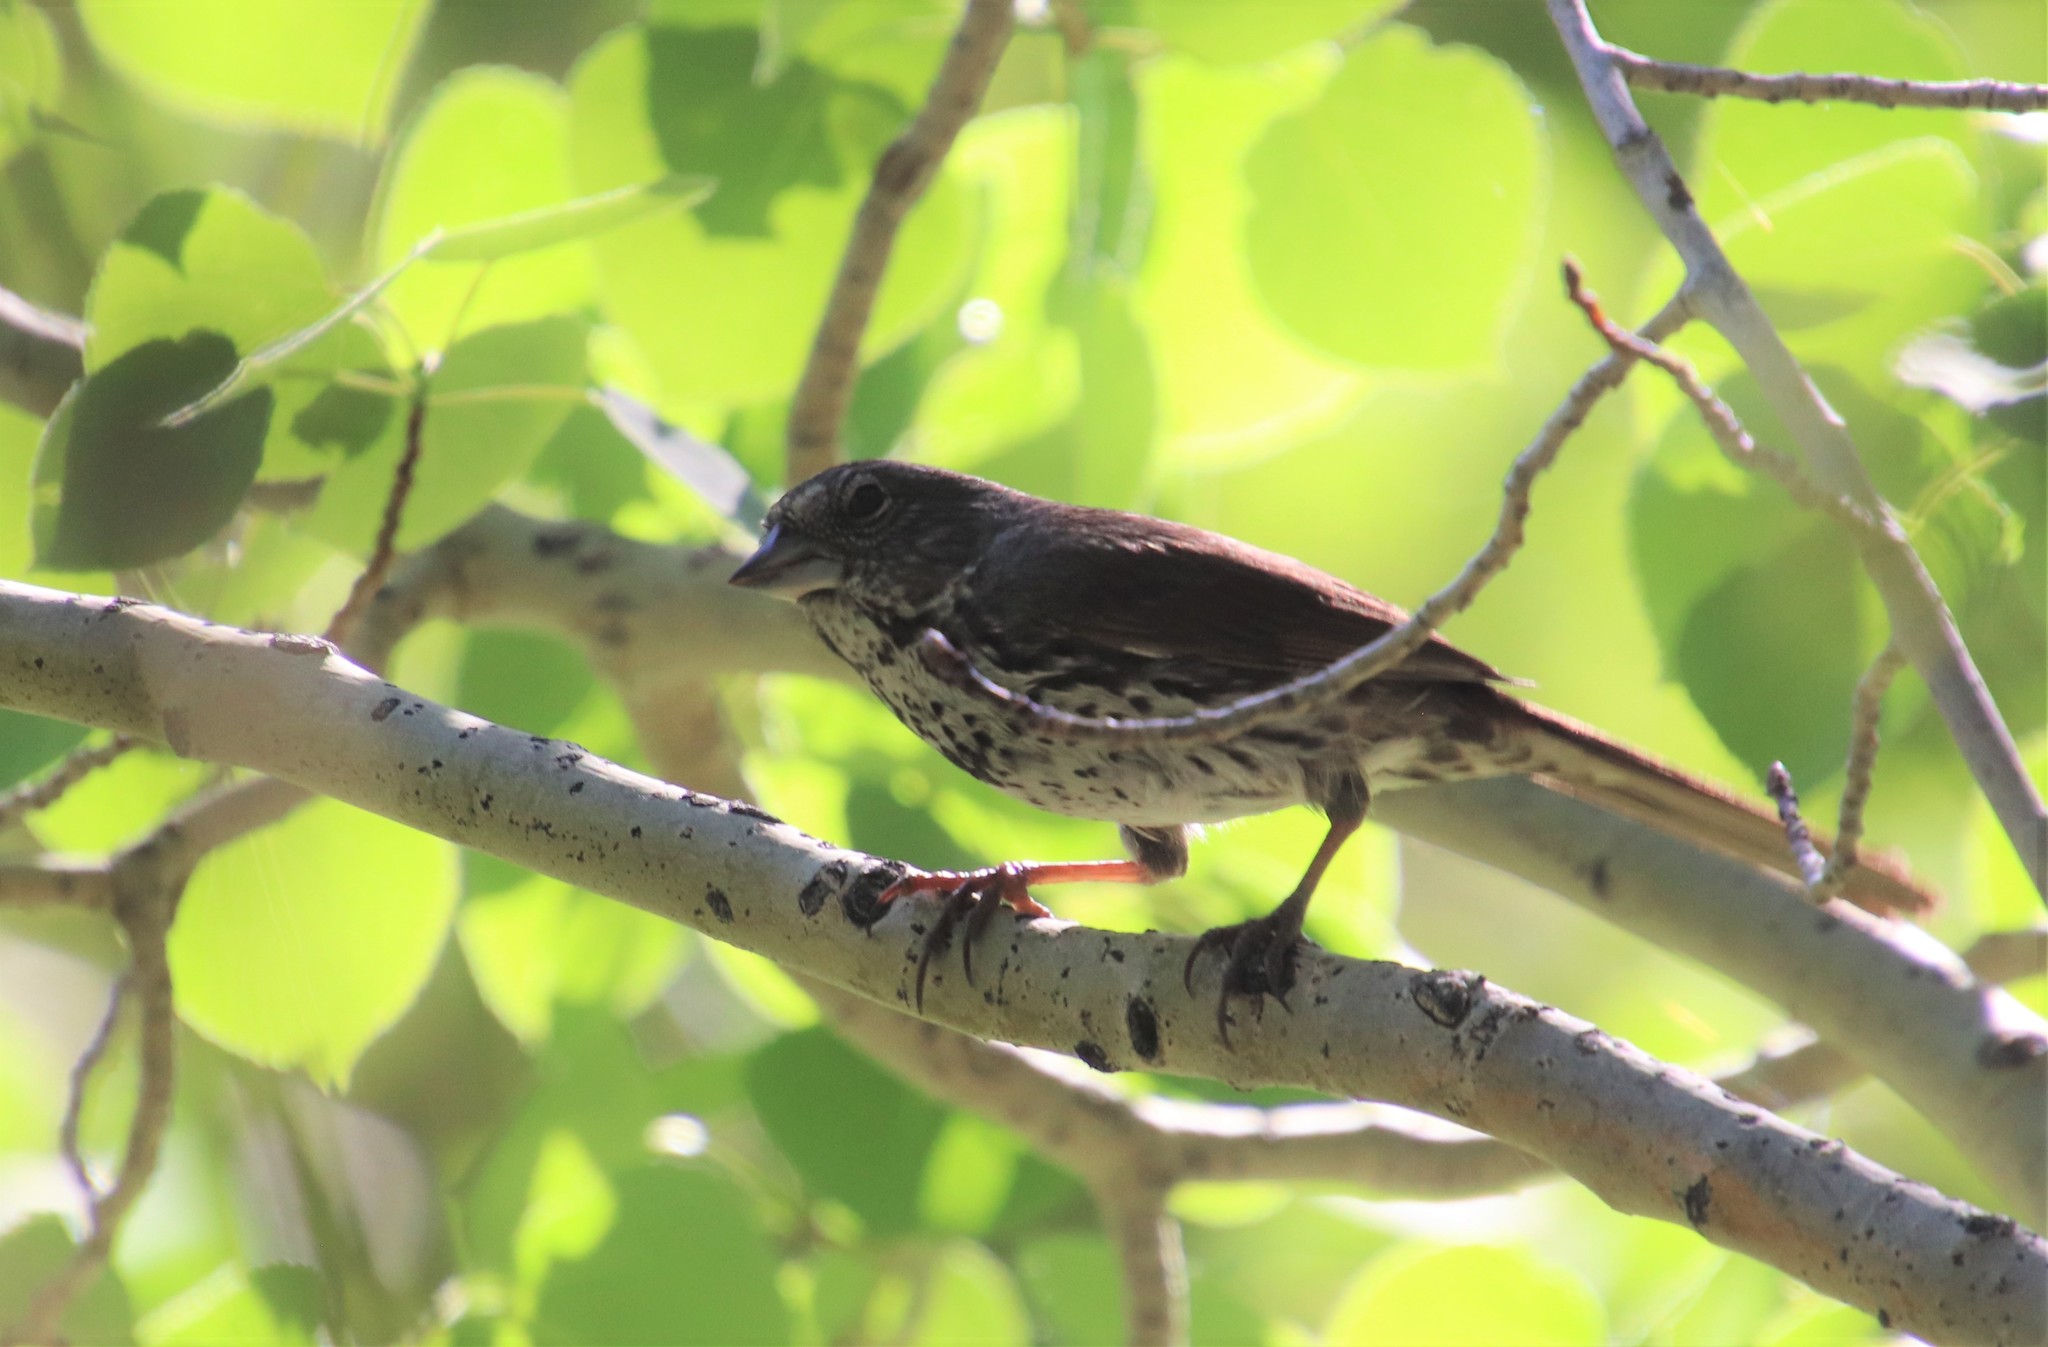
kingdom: Animalia
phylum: Chordata
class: Aves
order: Passeriformes
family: Passerellidae
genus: Passerella
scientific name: Passerella iliaca
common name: Fox sparrow
